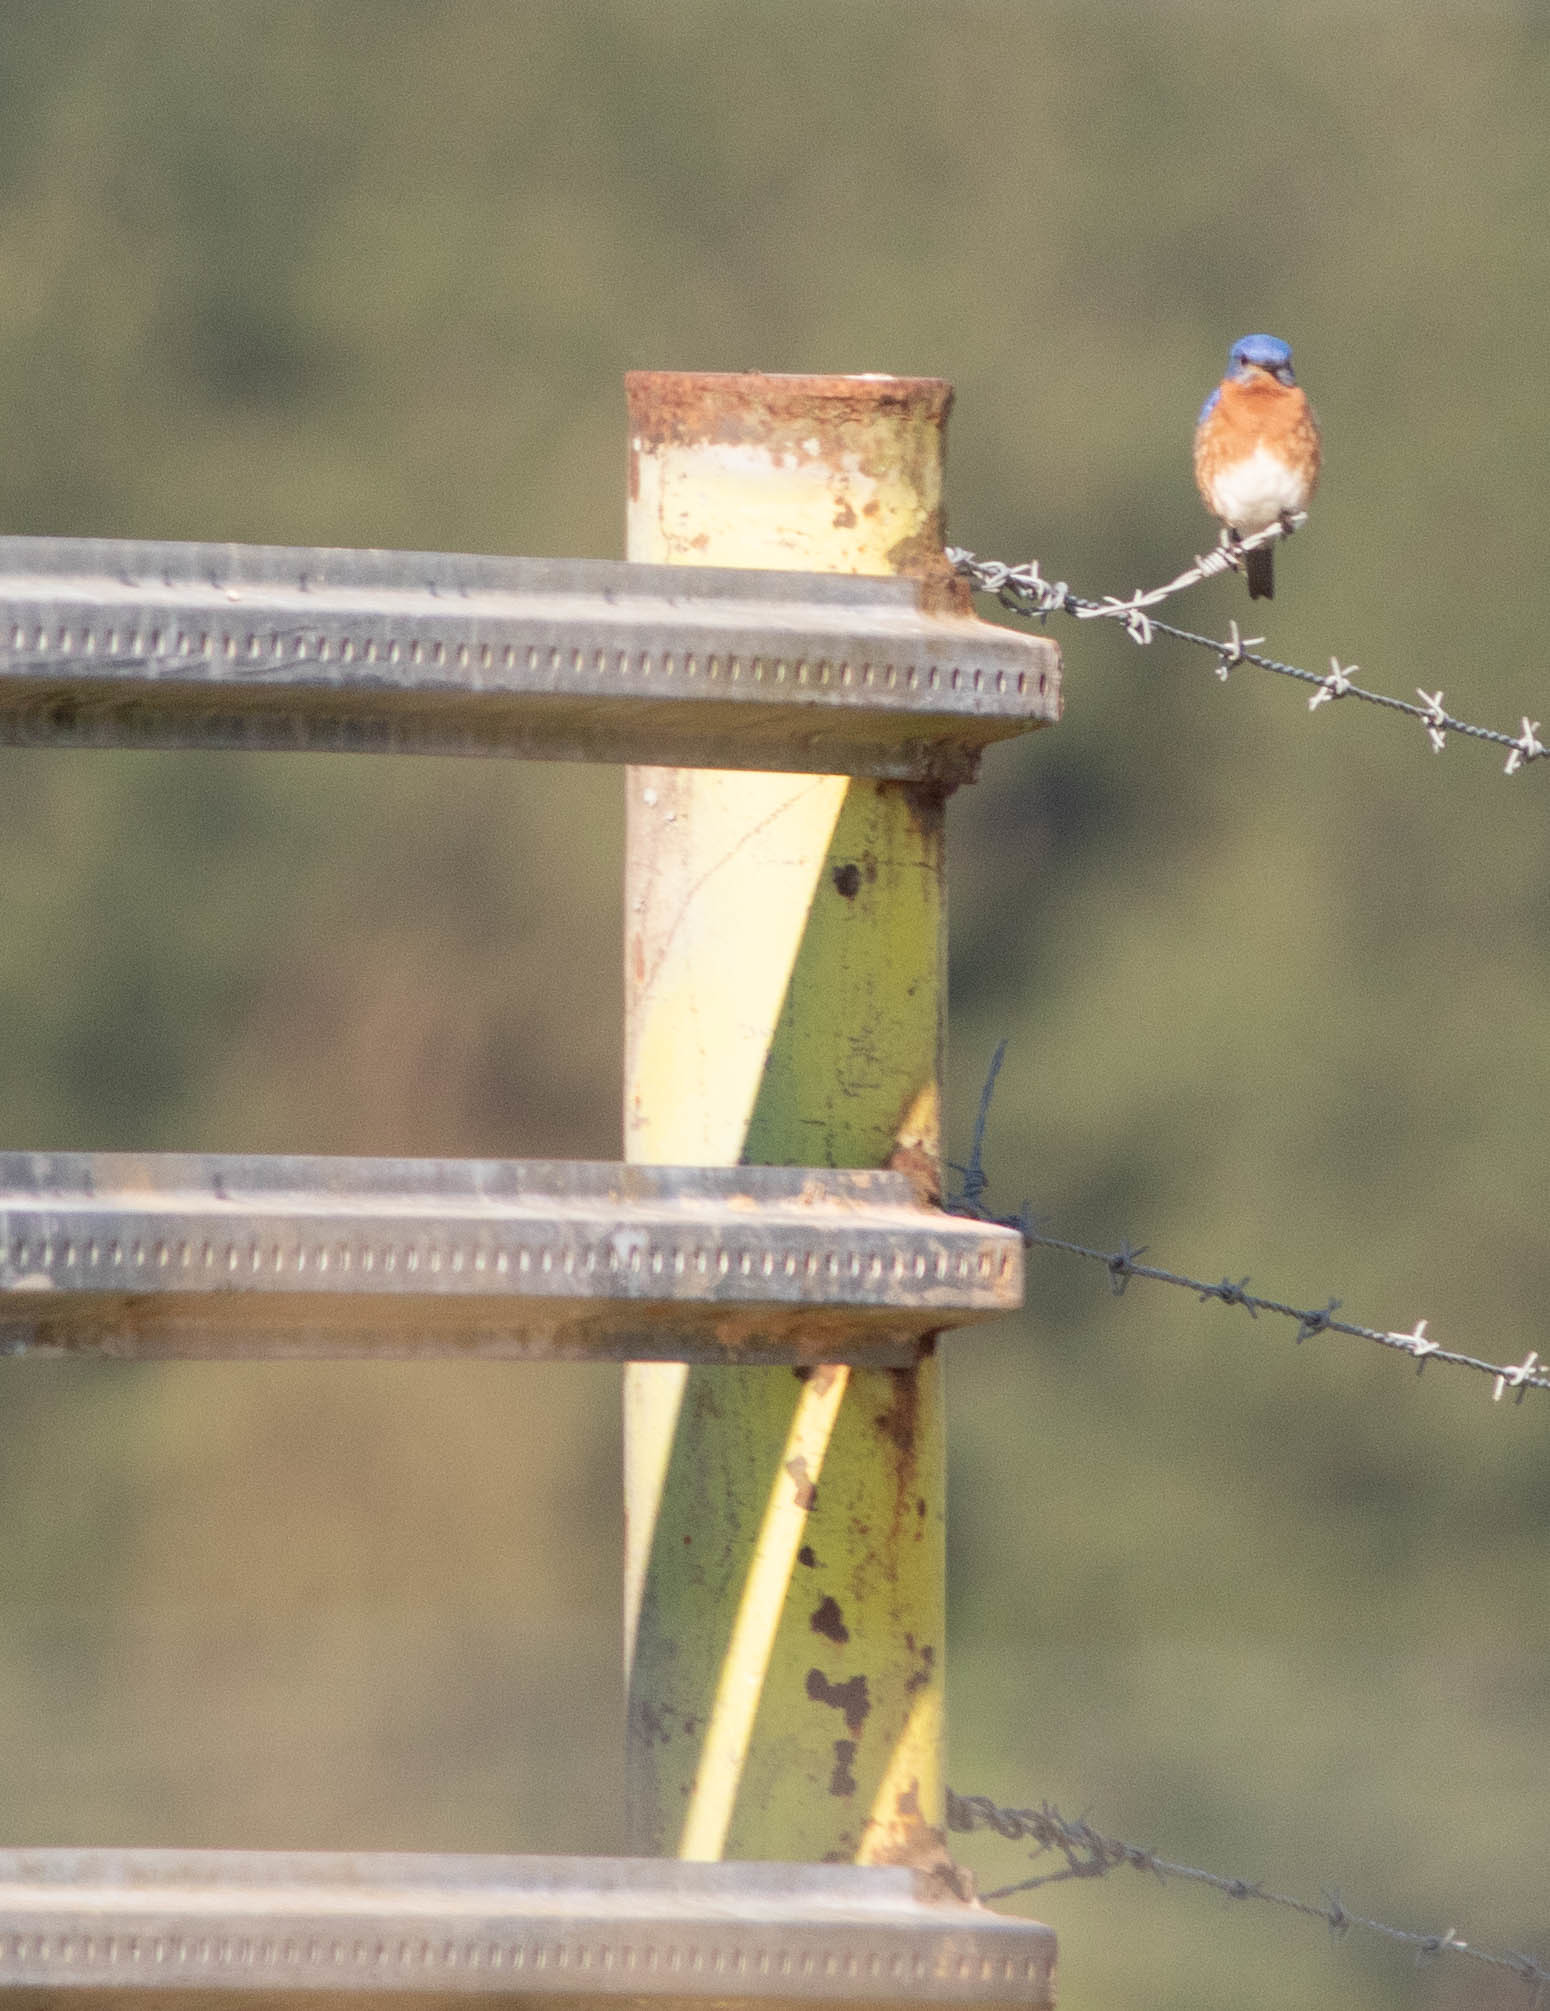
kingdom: Animalia
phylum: Chordata
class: Aves
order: Passeriformes
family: Turdidae
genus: Sialia
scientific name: Sialia sialis
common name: Eastern bluebird
